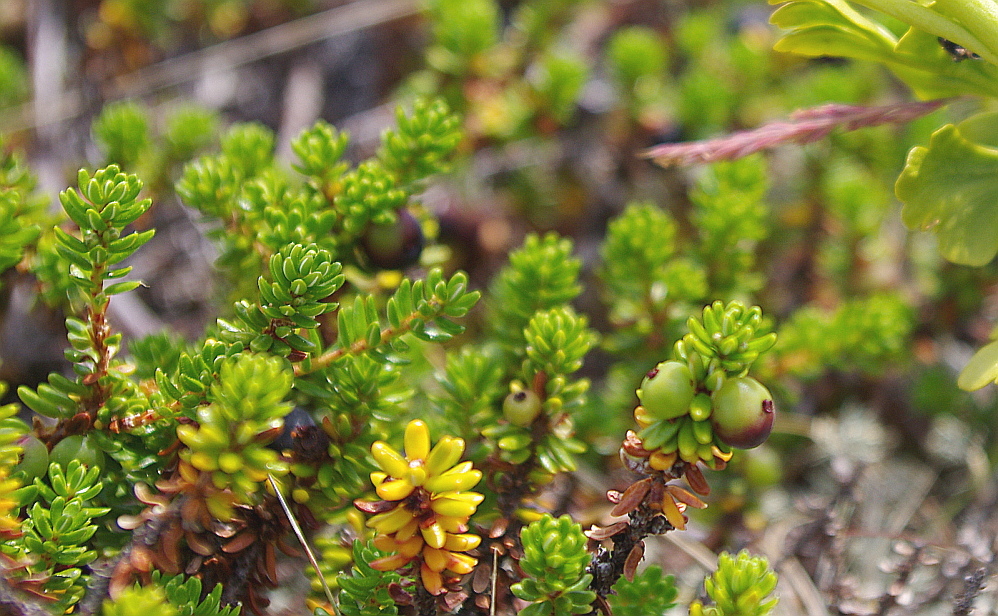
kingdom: Plantae
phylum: Tracheophyta
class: Magnoliopsida
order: Ericales
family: Ericaceae
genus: Empetrum
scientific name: Empetrum nigrum
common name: Black crowberry
